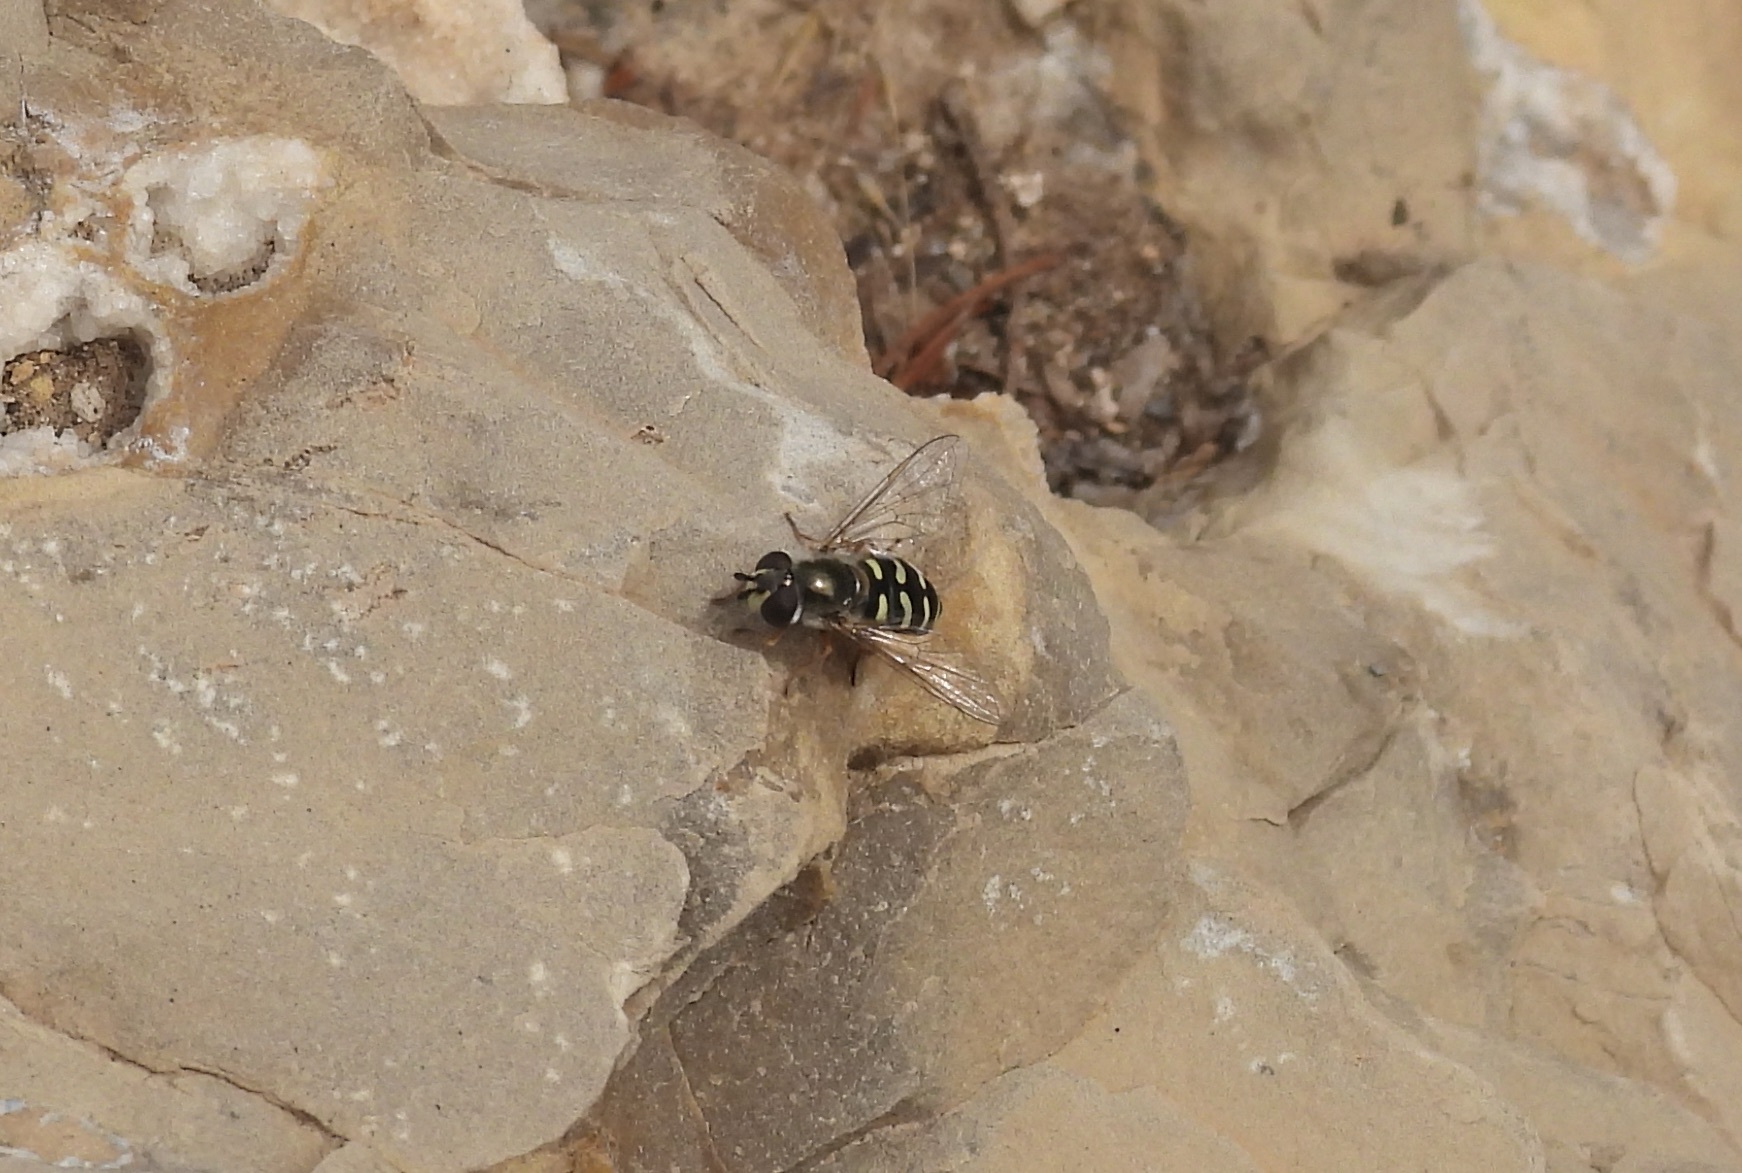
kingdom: Animalia
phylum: Arthropoda
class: Insecta
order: Diptera
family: Syrphidae
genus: Eupeodes
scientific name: Eupeodes volucris
